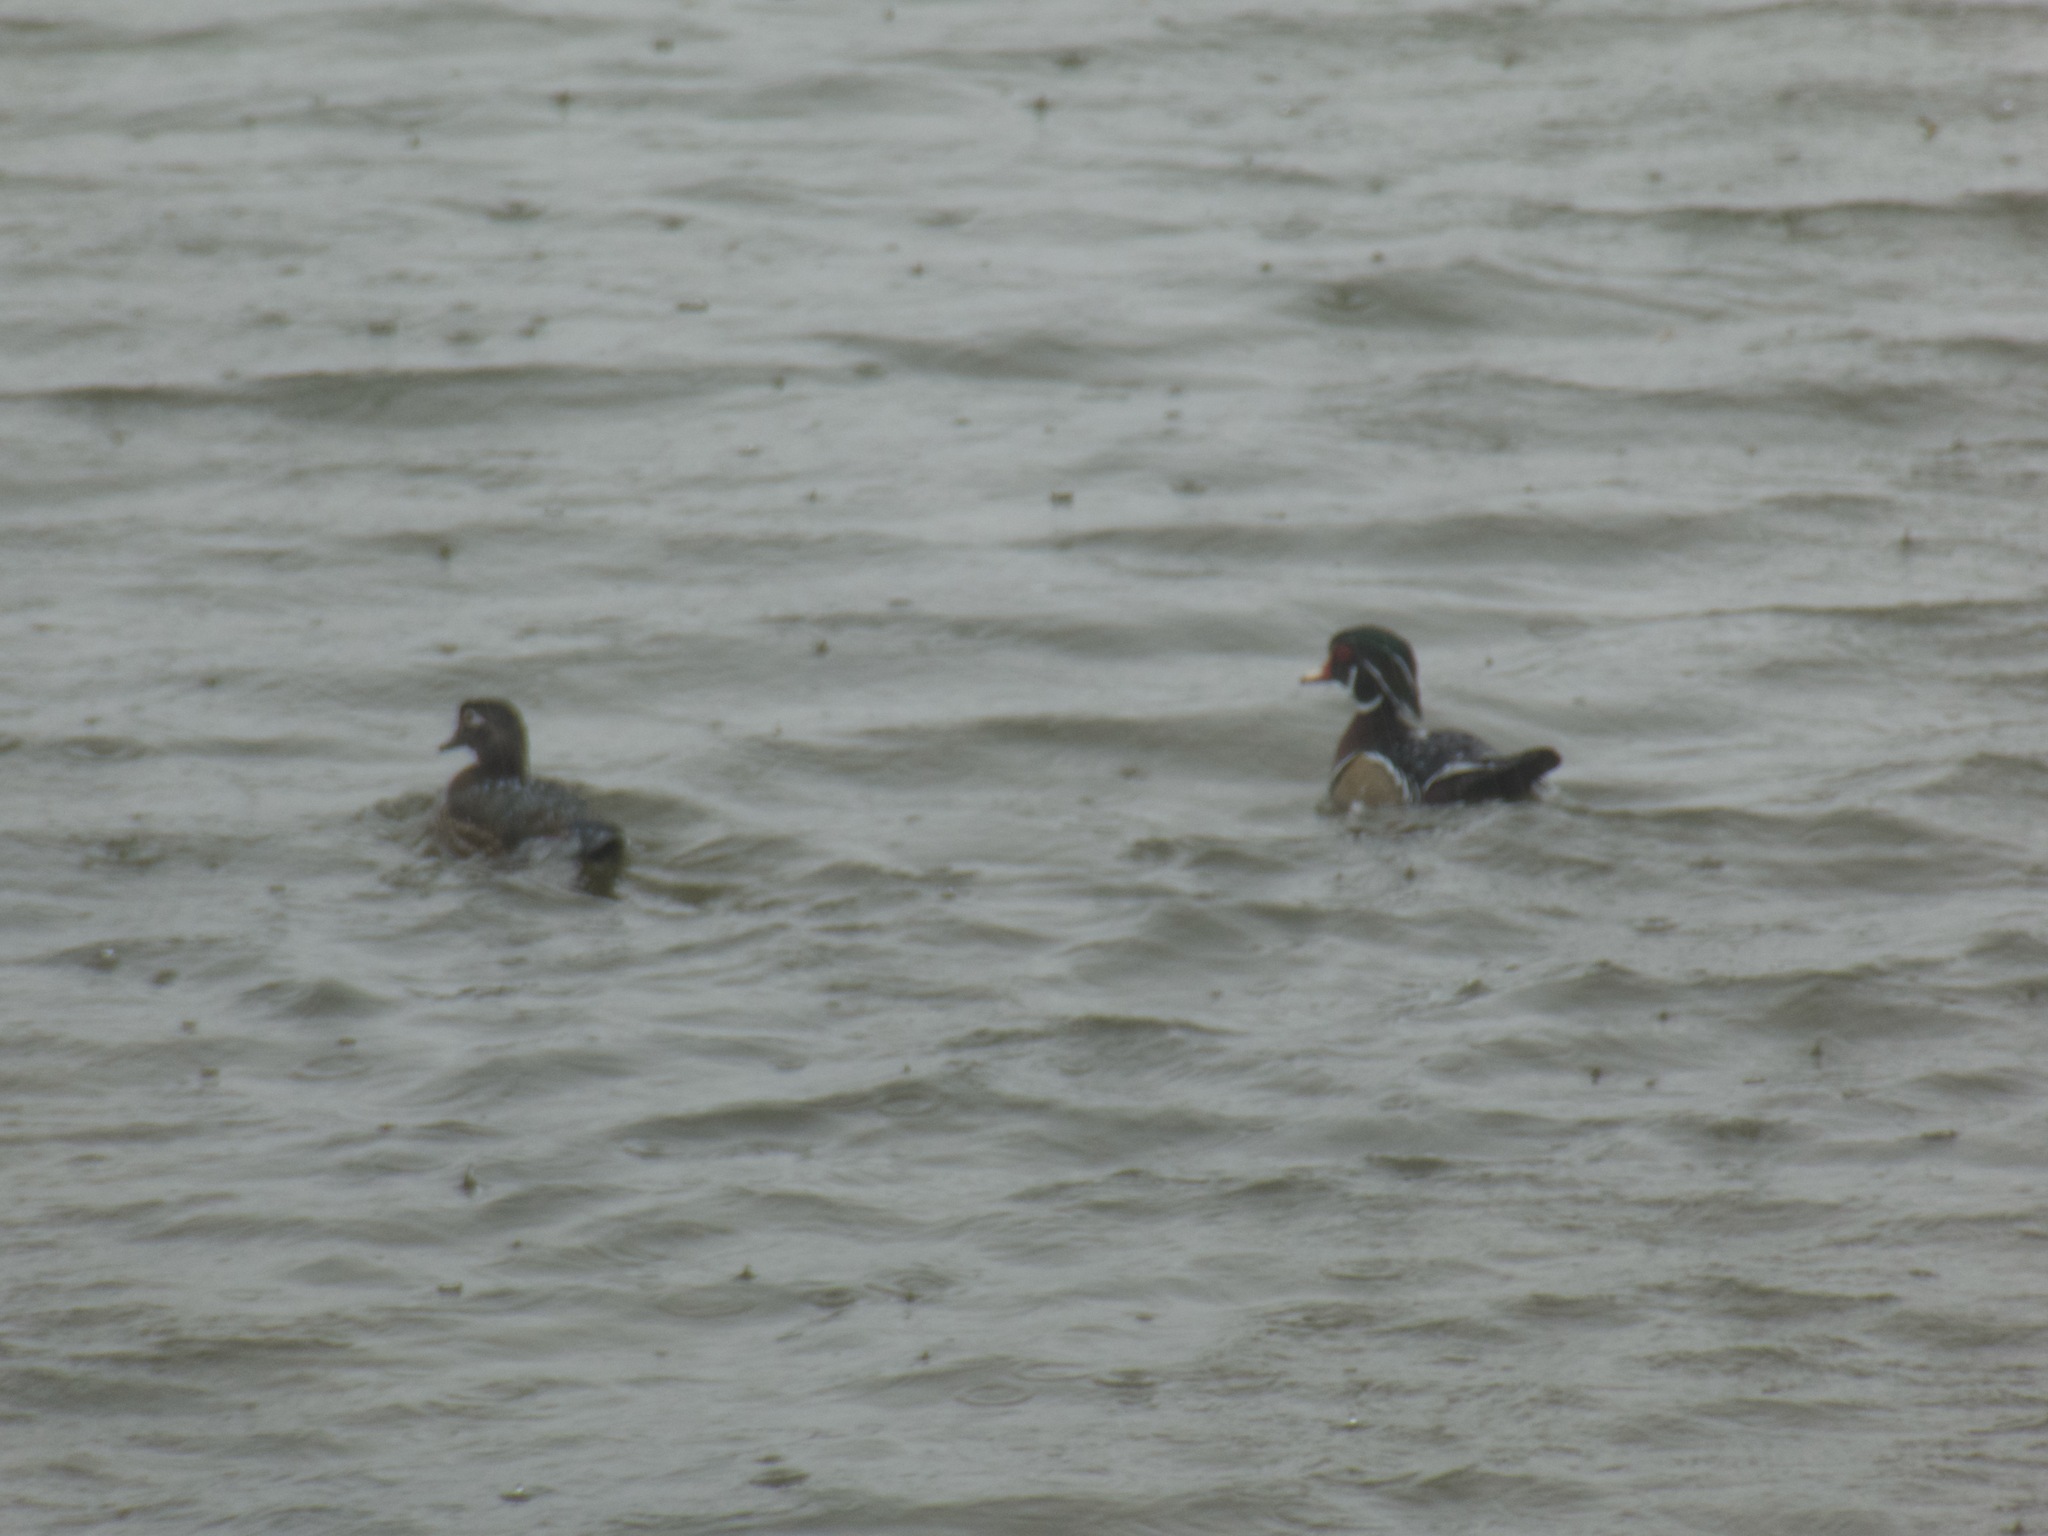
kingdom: Animalia
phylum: Chordata
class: Aves
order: Anseriformes
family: Anatidae
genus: Aix
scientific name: Aix sponsa
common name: Wood duck
